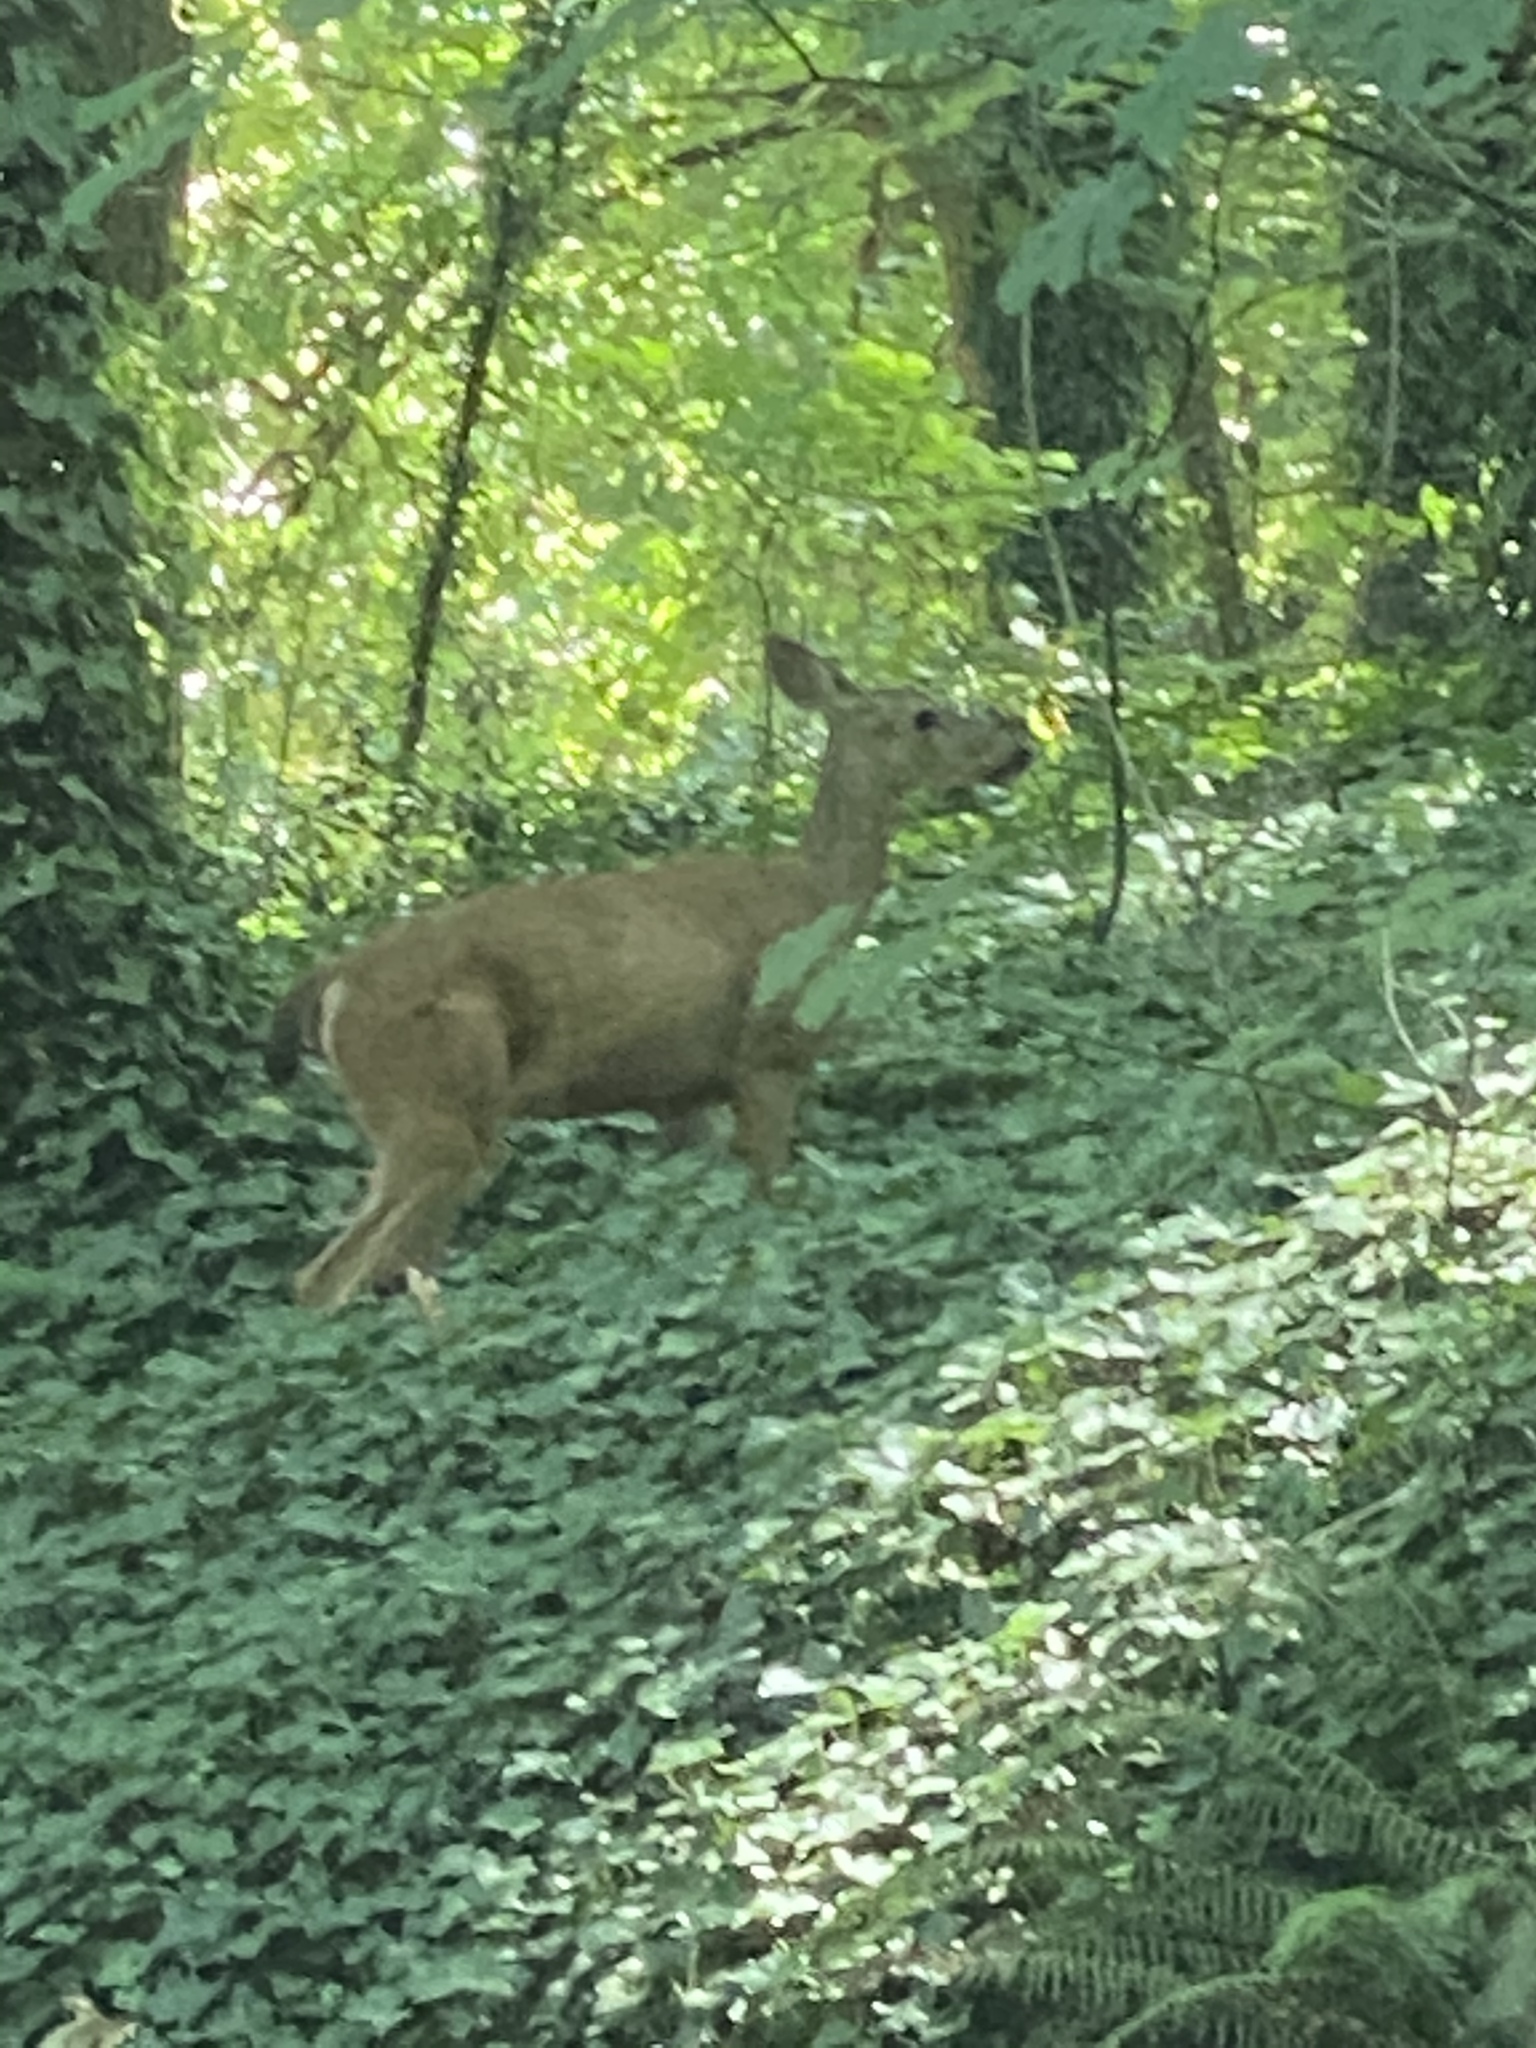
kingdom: Animalia
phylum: Chordata
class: Mammalia
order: Artiodactyla
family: Cervidae
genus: Odocoileus
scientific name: Odocoileus hemionus
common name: Mule deer
